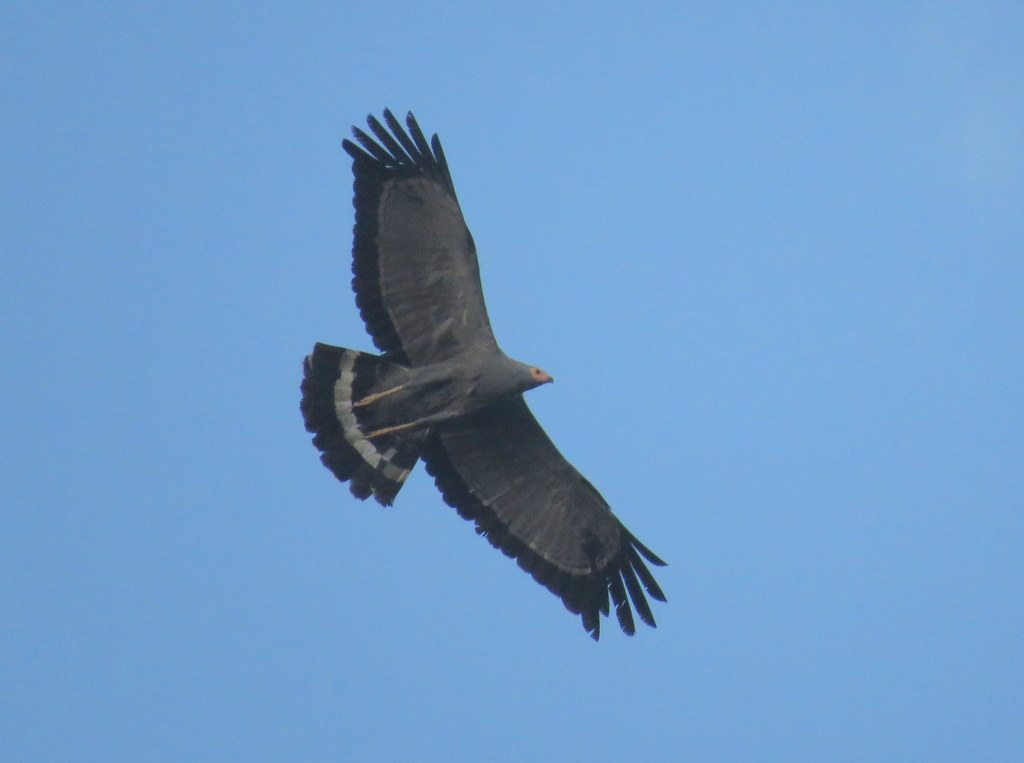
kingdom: Animalia
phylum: Chordata
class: Aves
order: Accipitriformes
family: Accipitridae
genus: Polyboroides
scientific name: Polyboroides typus
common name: African harrier-hawk
